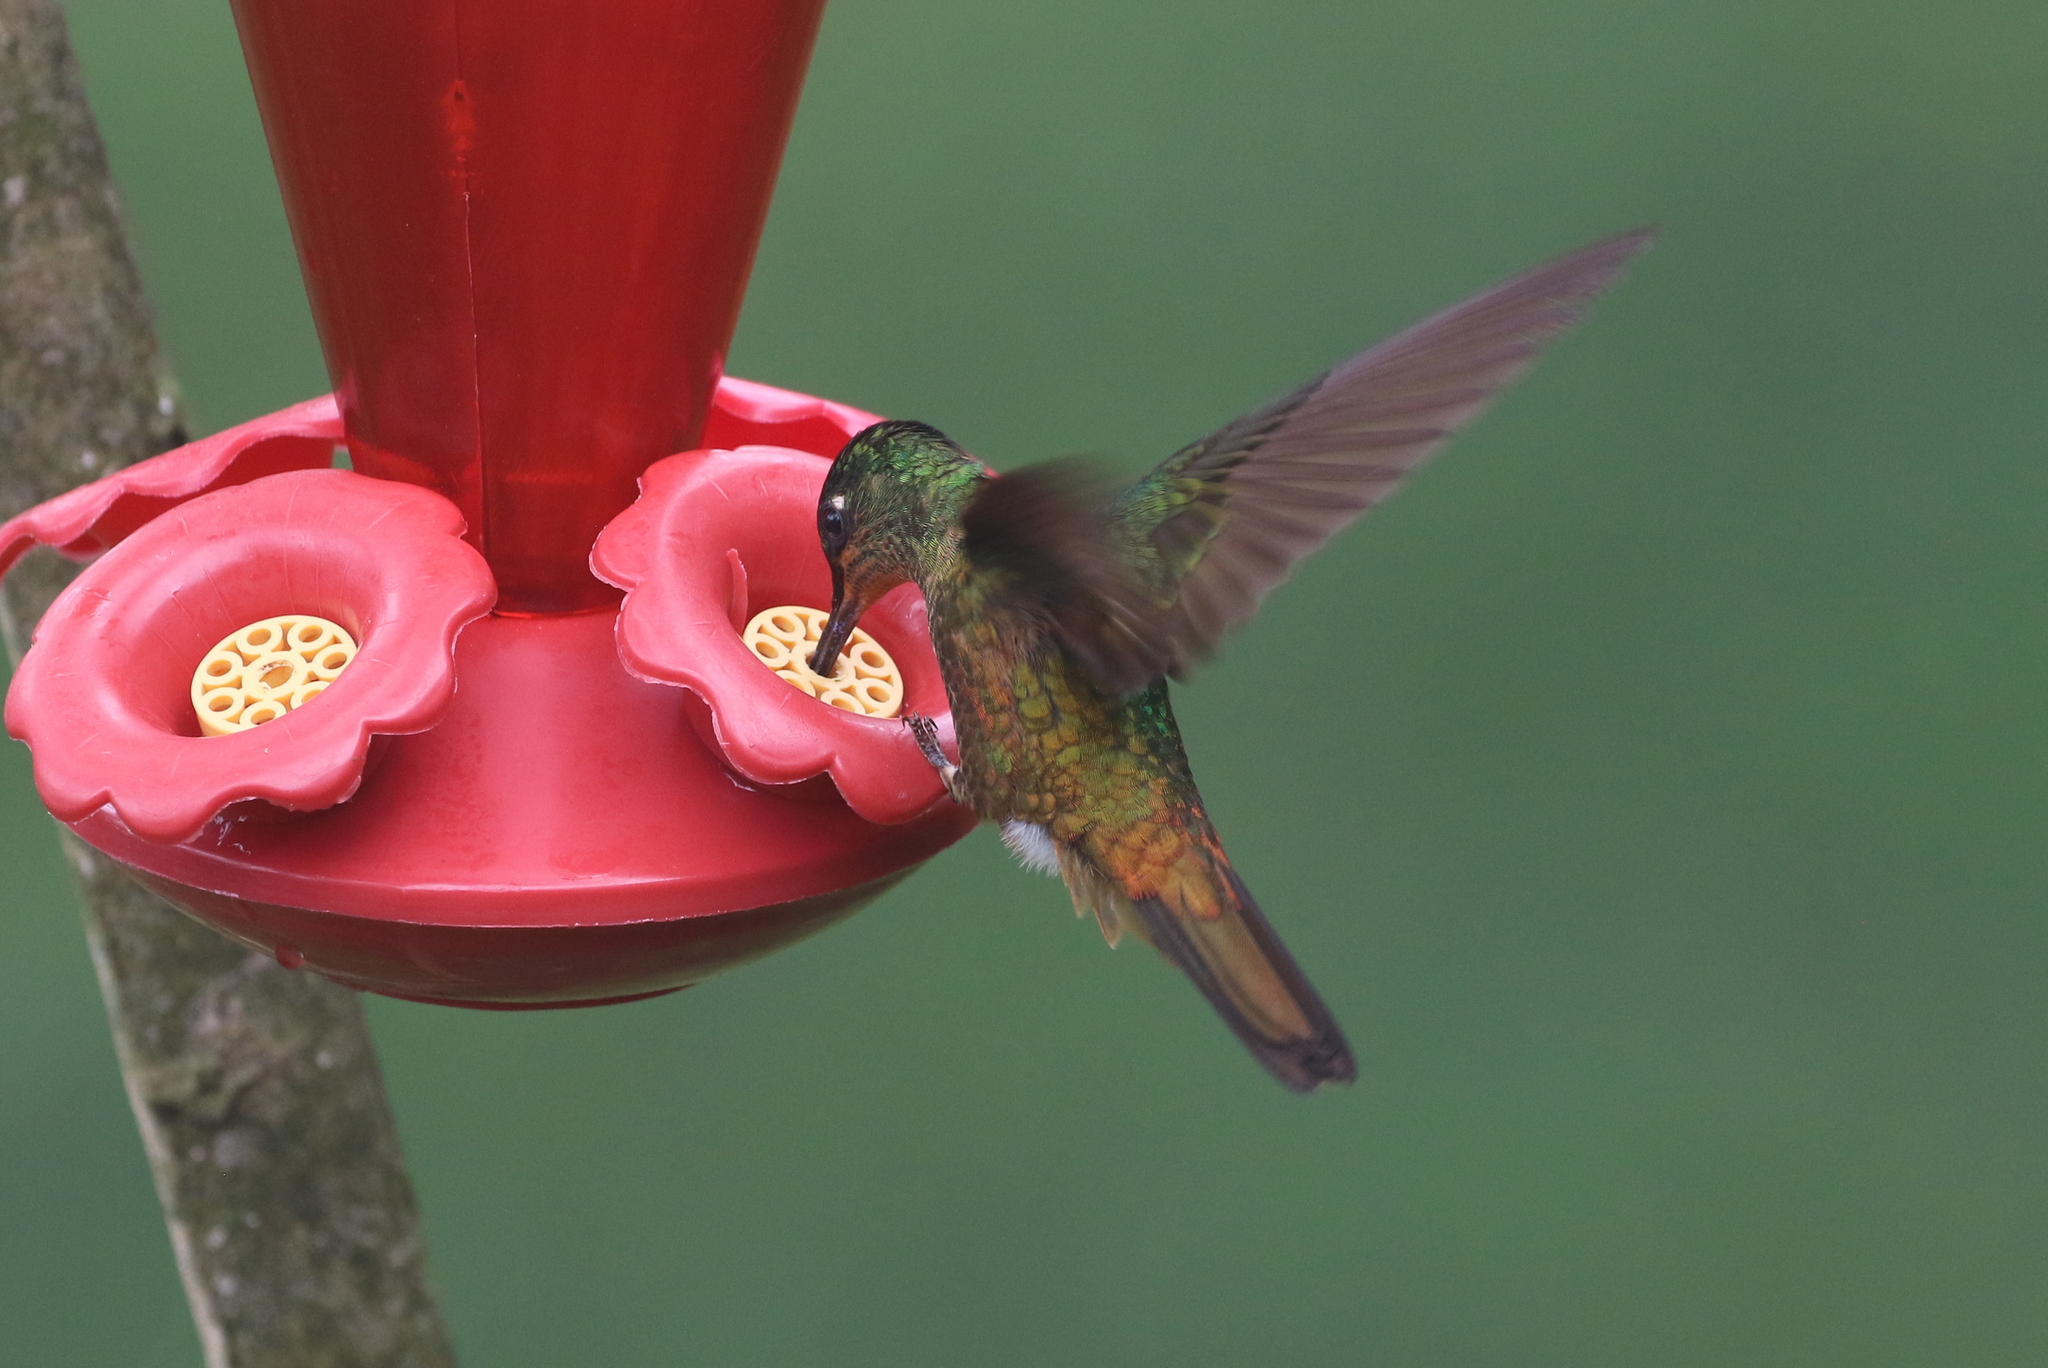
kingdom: Animalia
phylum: Chordata
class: Aves
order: Apodiformes
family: Trochilidae
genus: Coeligena
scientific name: Coeligena bonapartei
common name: Golden-bellied starfrontlet
